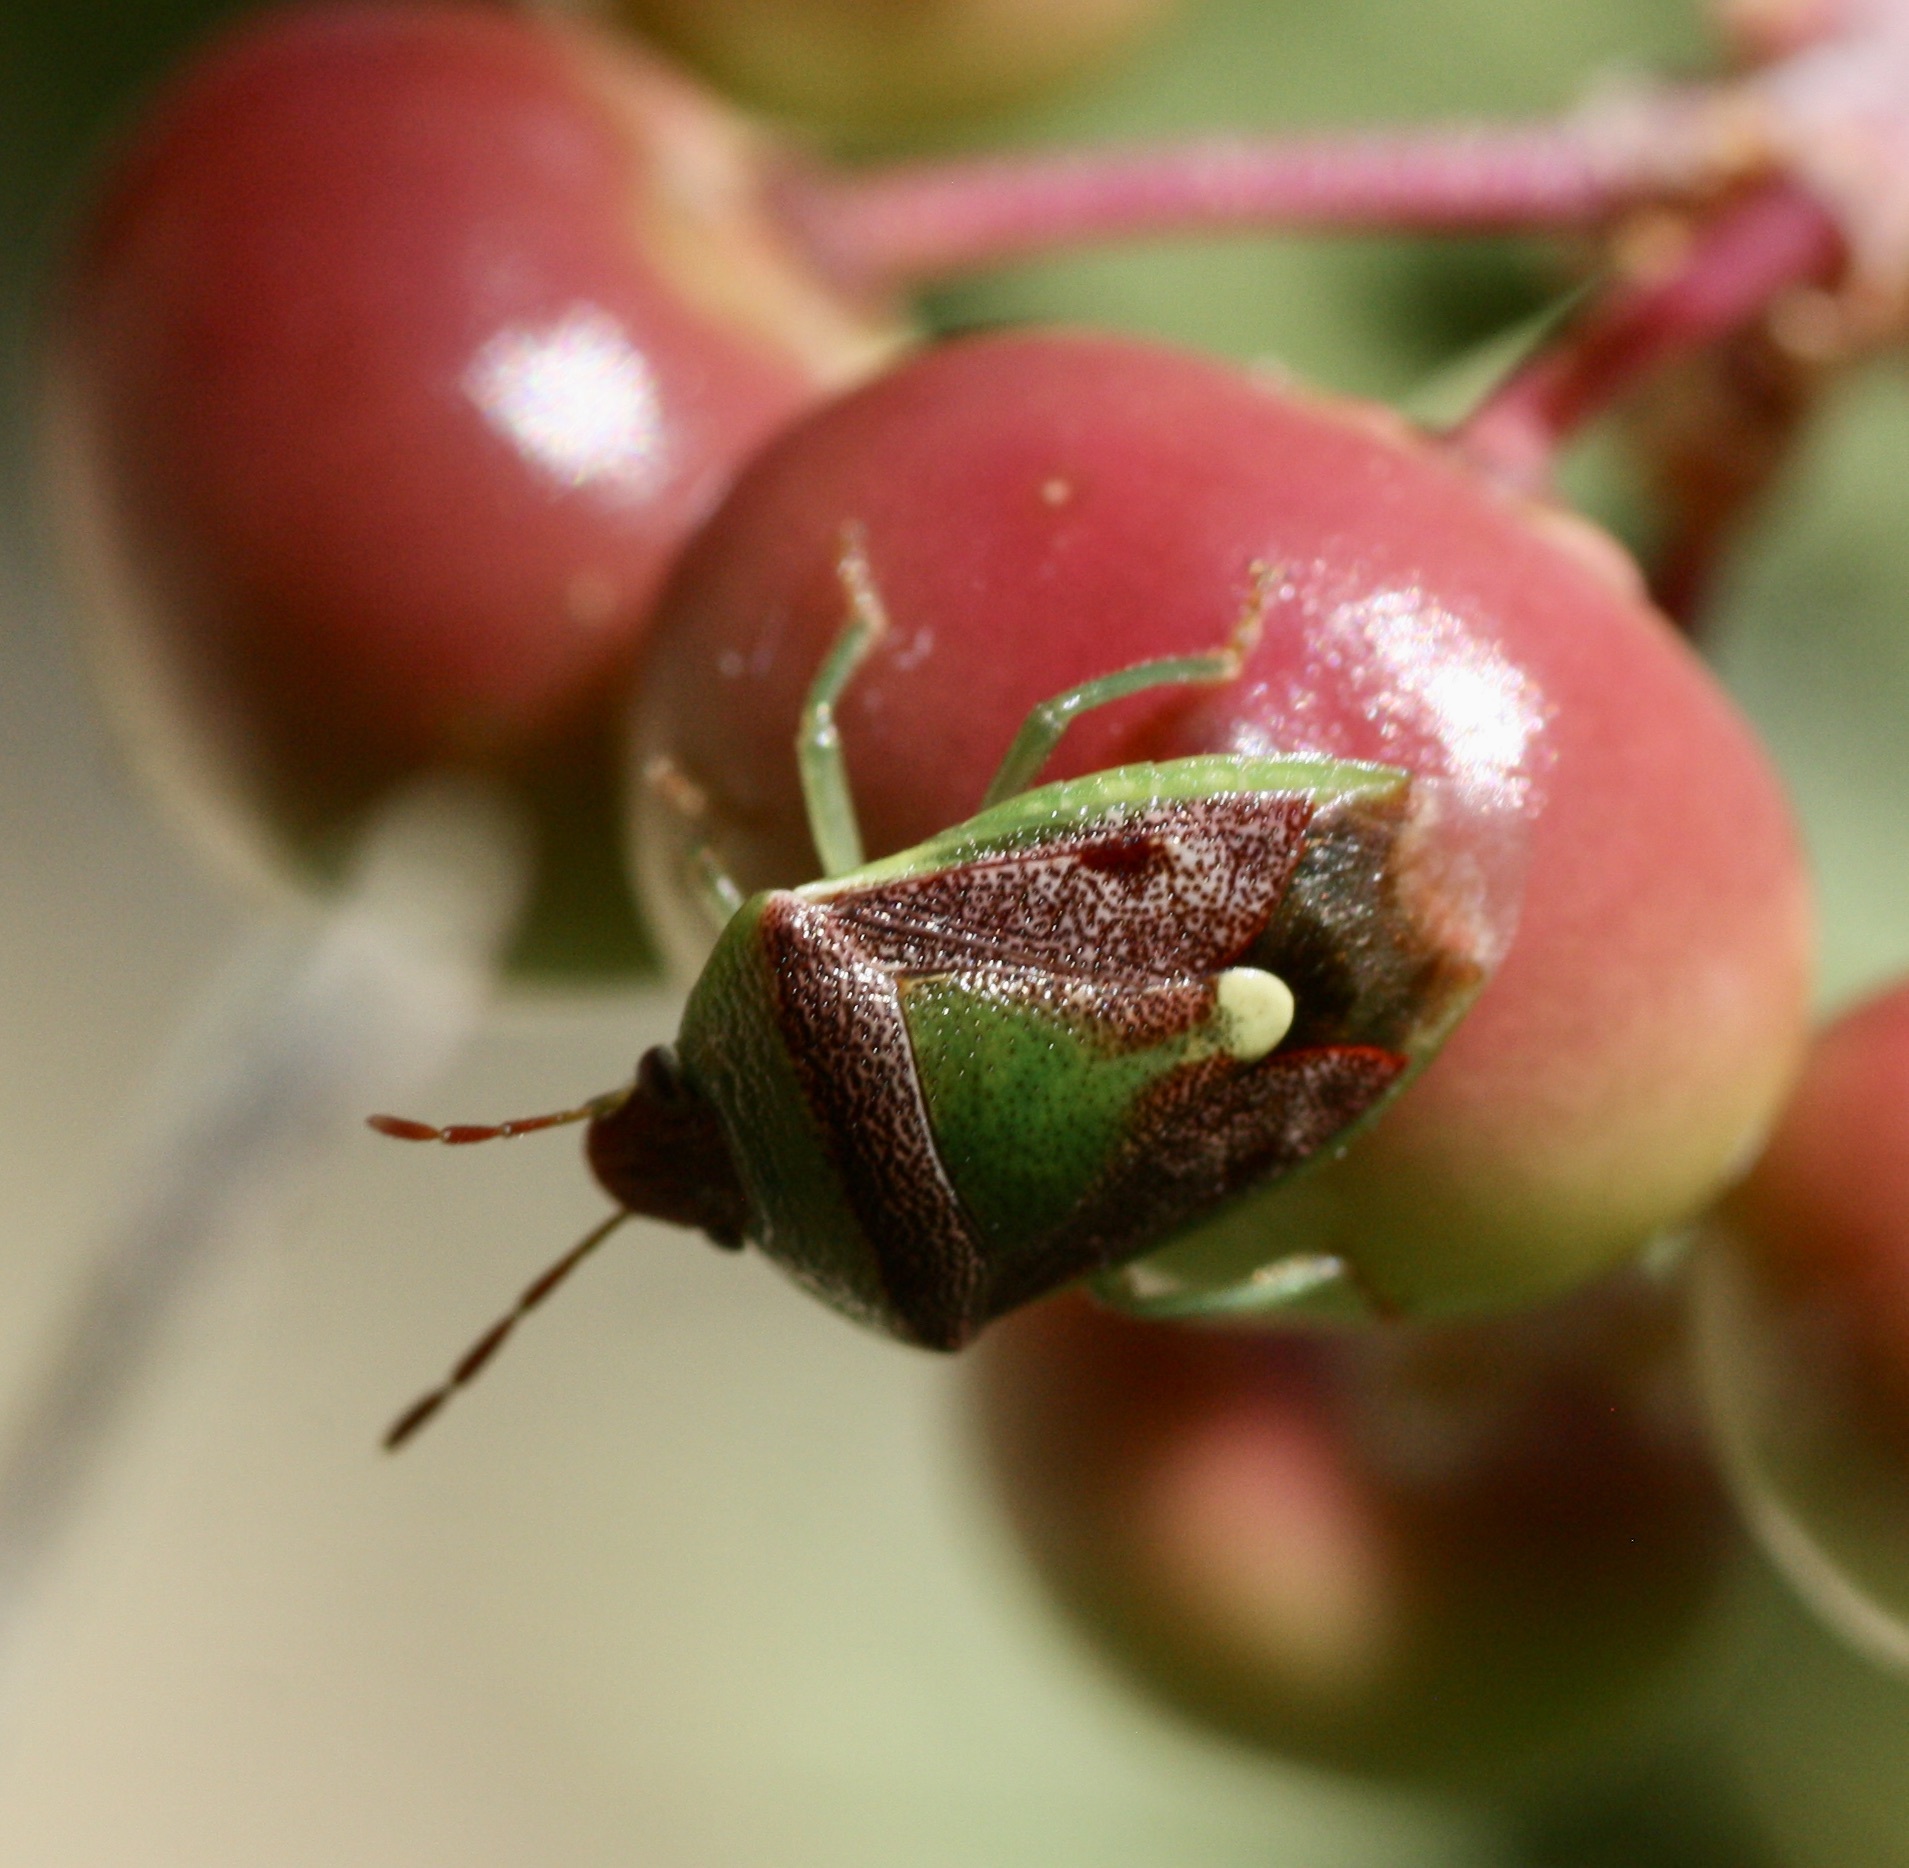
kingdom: Animalia
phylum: Arthropoda
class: Insecta
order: Hemiptera
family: Pentatomidae
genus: Banasa
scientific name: Banasa dimidiata
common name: Green burgundy stink bug
